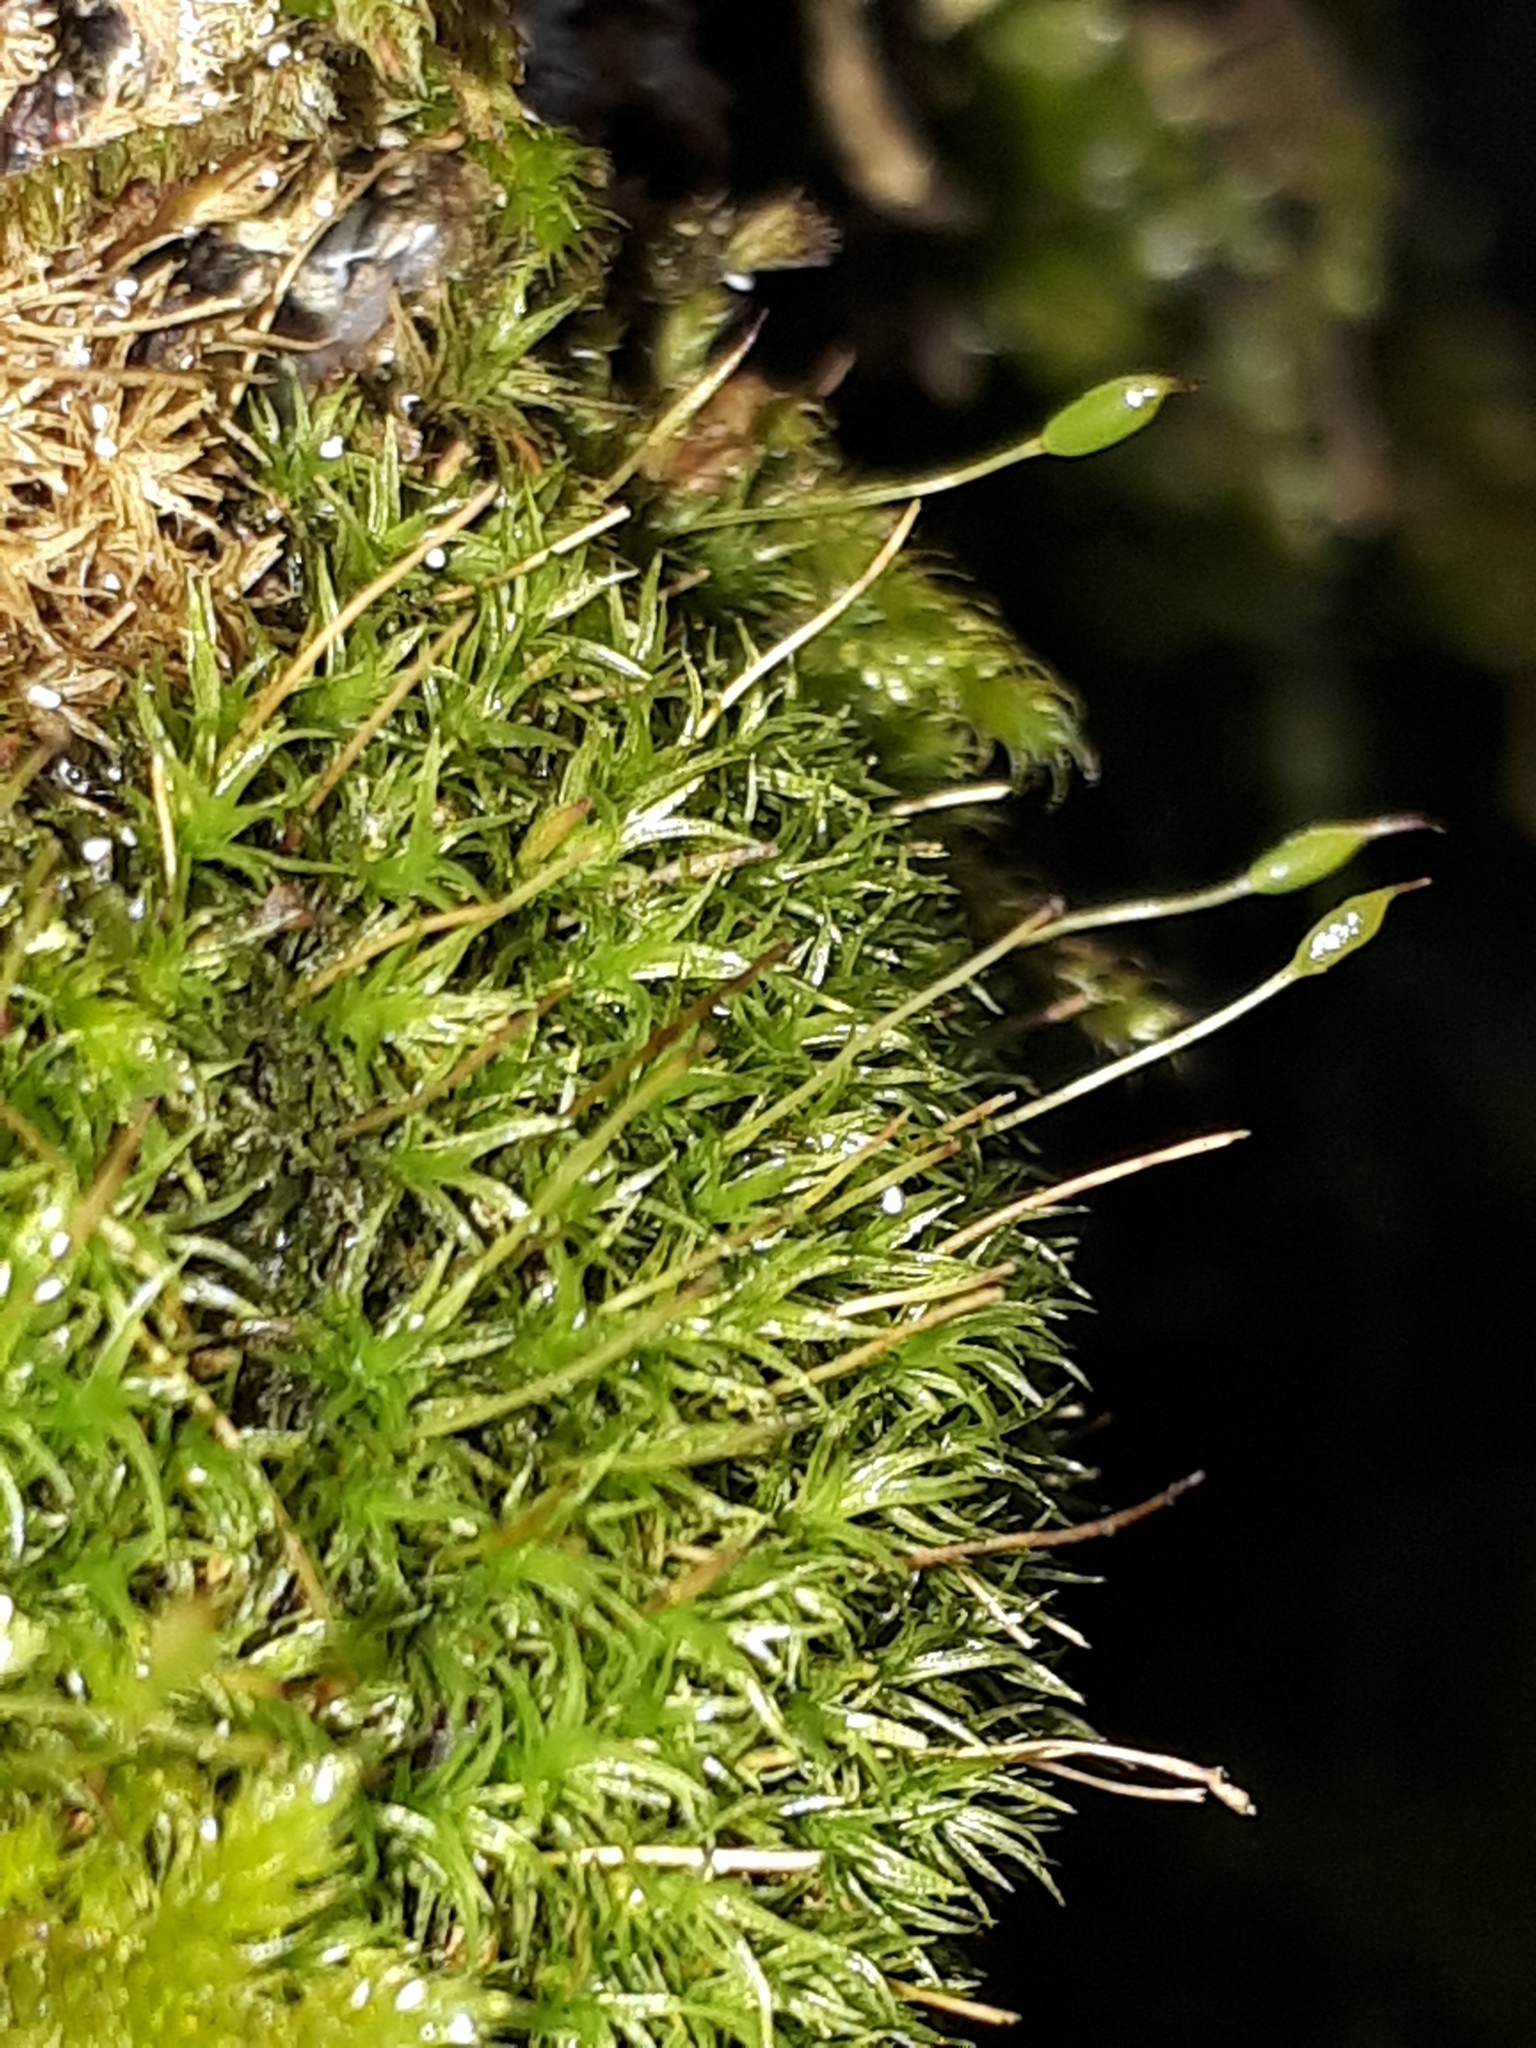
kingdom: Plantae
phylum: Bryophyta
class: Bryopsida
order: Dicranales
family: Rhabdoweisiaceae
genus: Dicranoweisia
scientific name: Dicranoweisia cirrata
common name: Common pincushion
